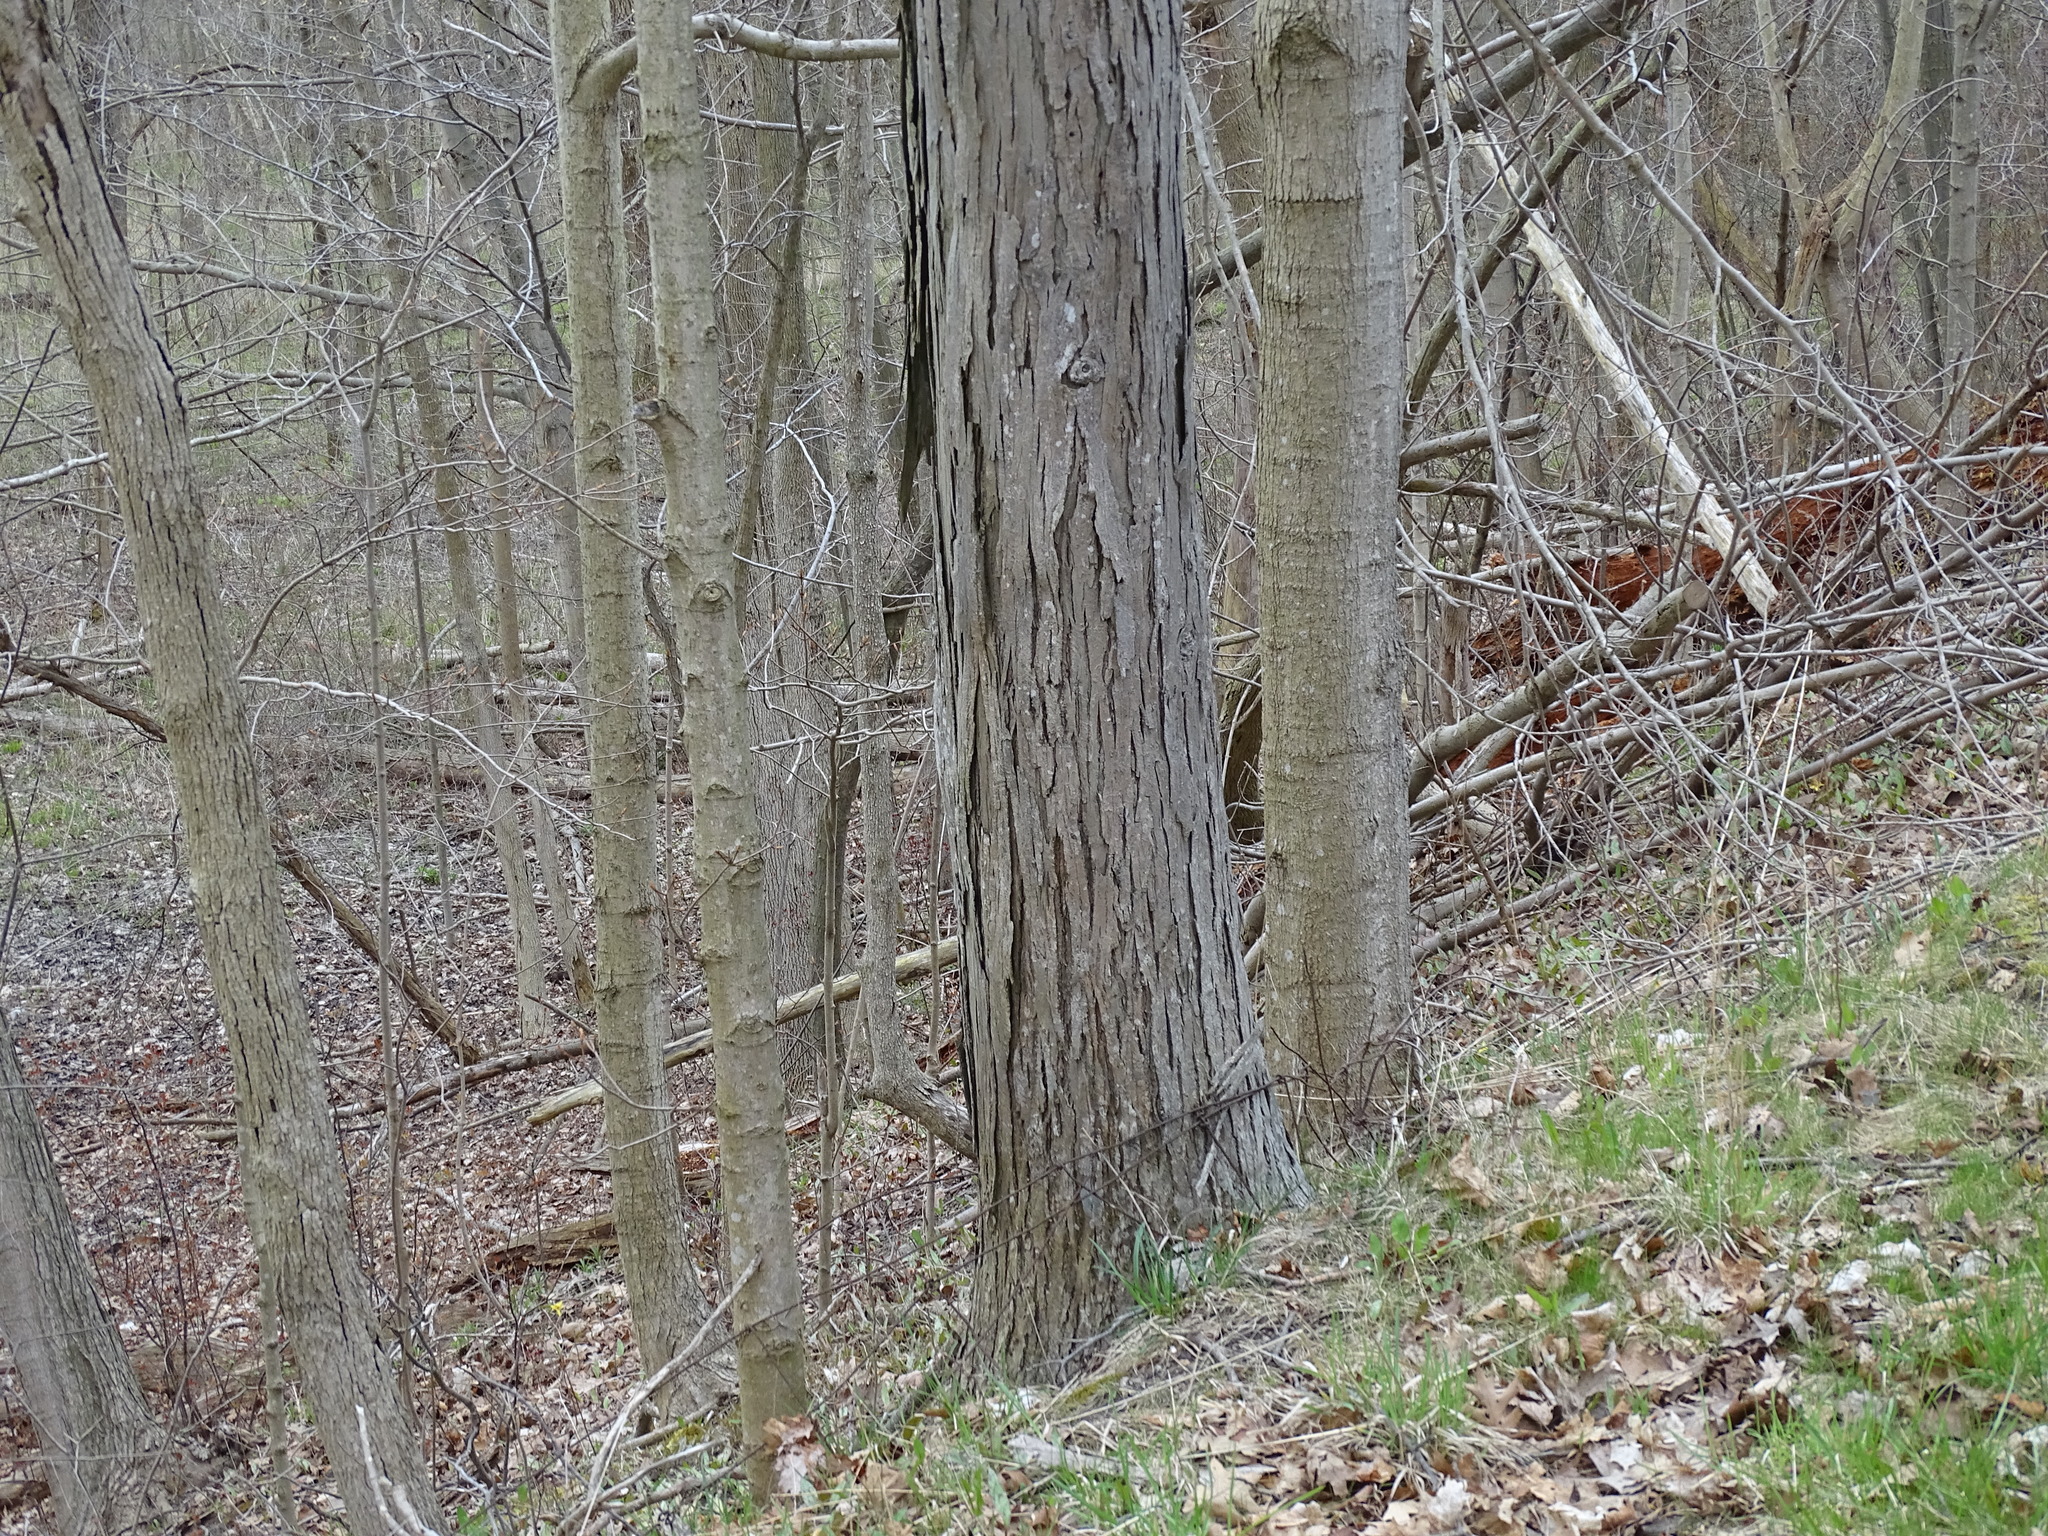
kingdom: Plantae
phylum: Tracheophyta
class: Magnoliopsida
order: Fagales
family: Juglandaceae
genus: Carya
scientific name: Carya ovata
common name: Shagbark hickory
